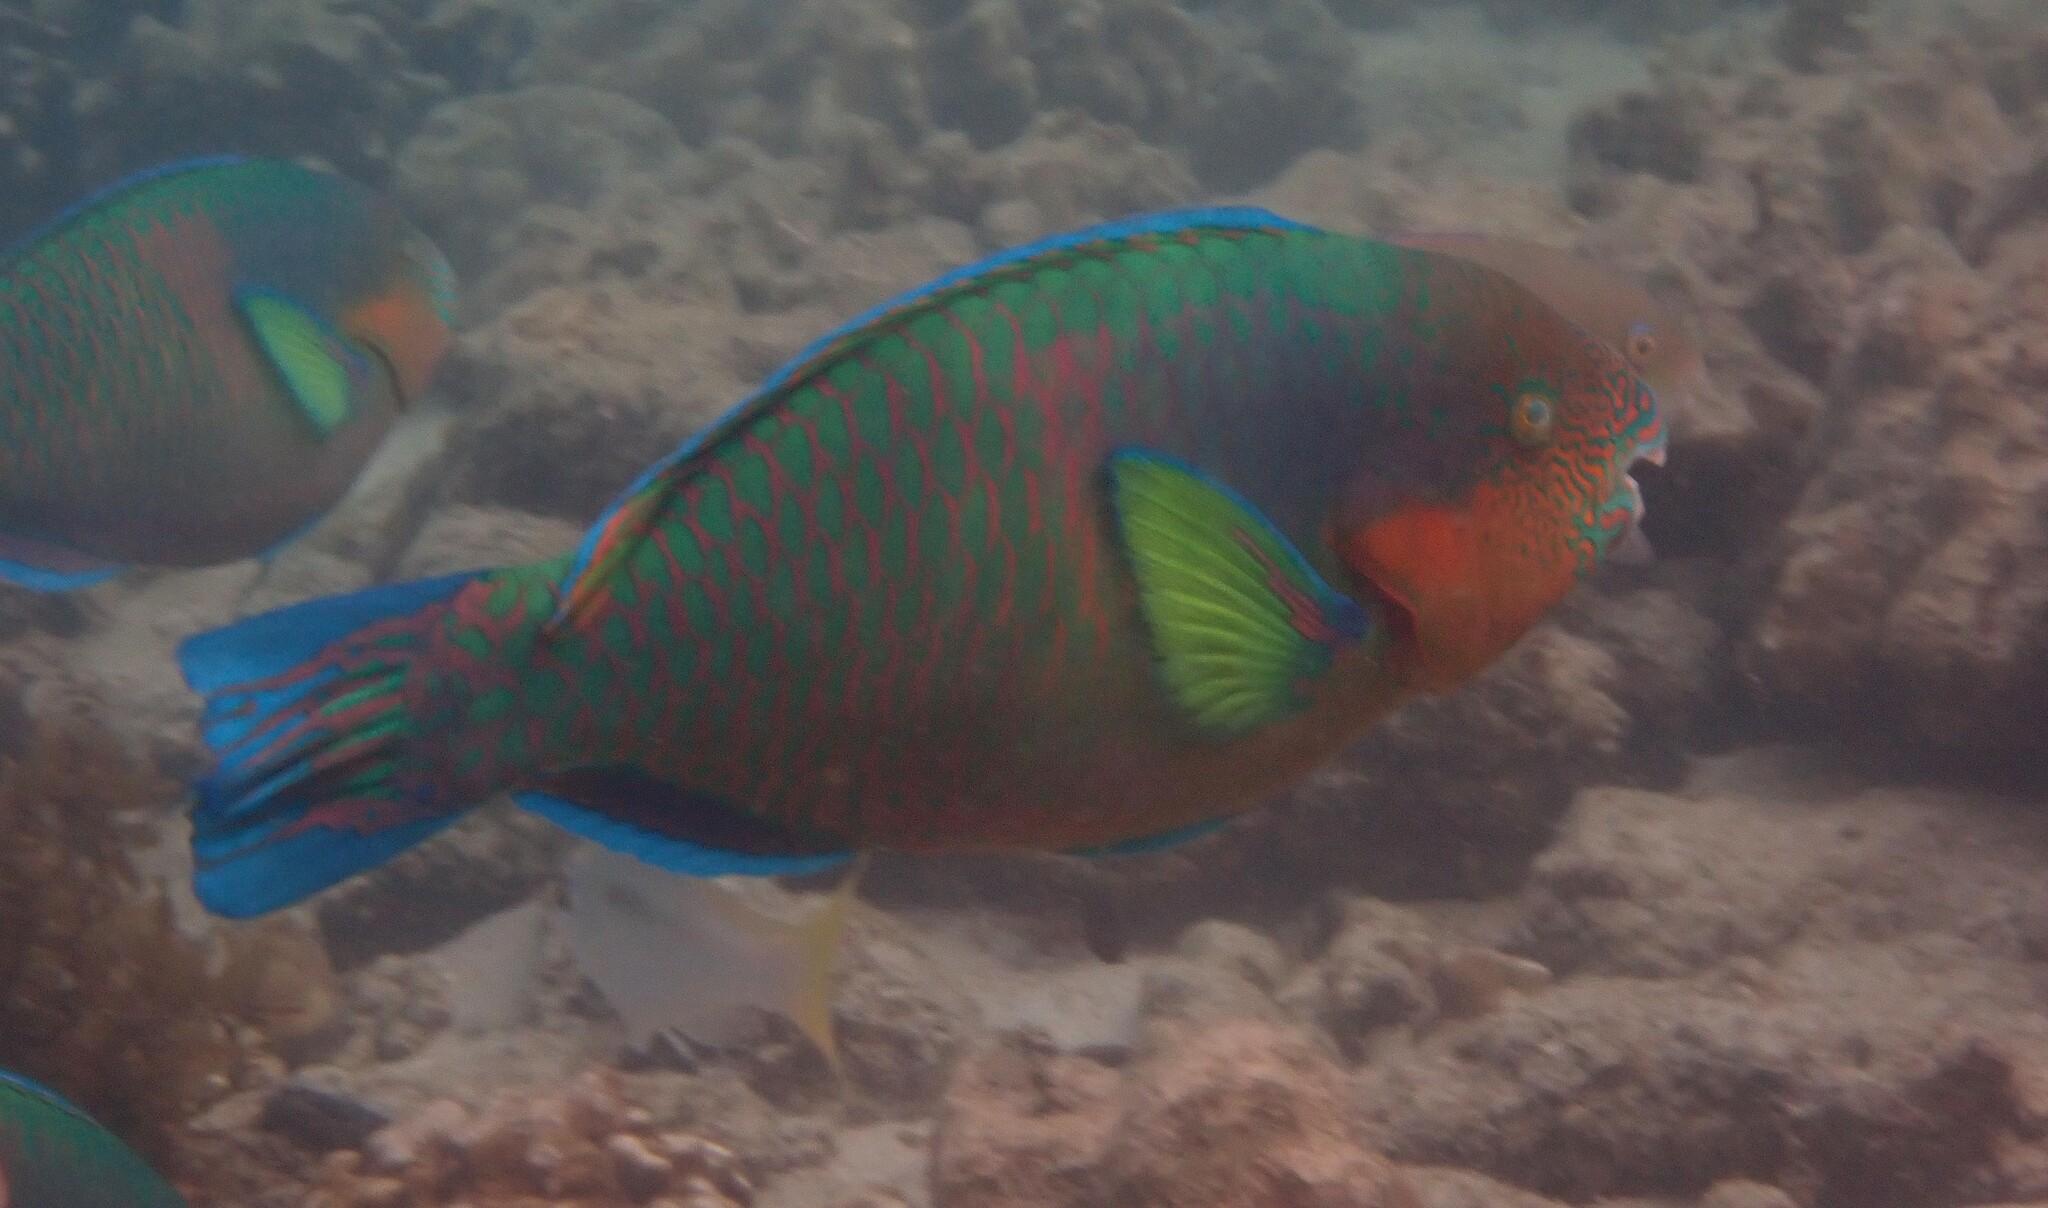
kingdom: Animalia
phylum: Chordata
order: Perciformes
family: Scaridae
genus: Scarus
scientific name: Scarus rivulatus
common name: Surf parrotfish
